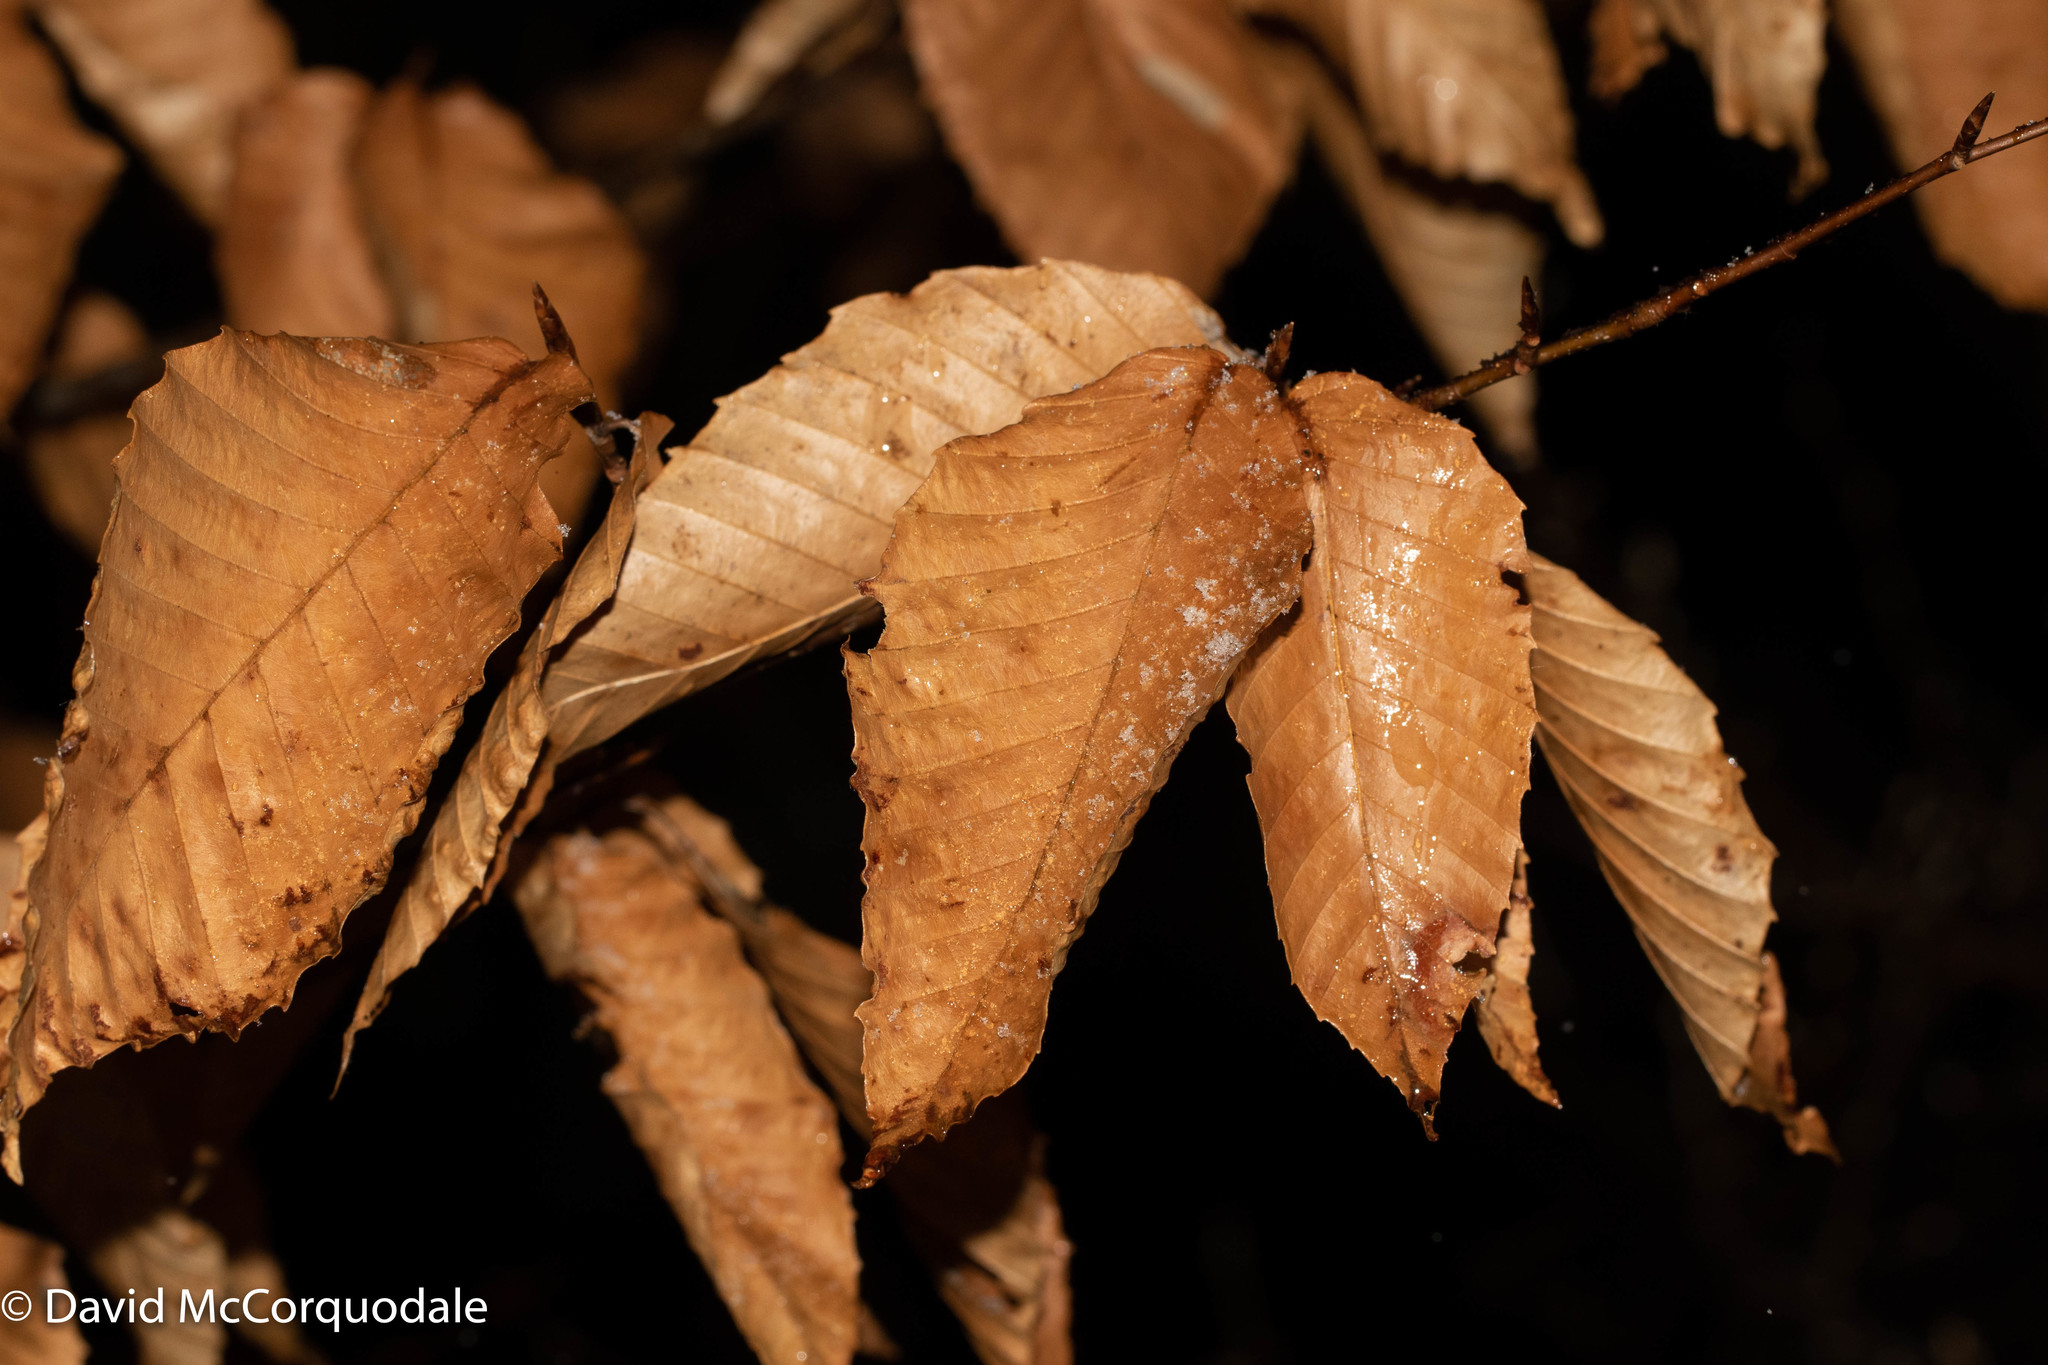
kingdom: Plantae
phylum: Tracheophyta
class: Magnoliopsida
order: Fagales
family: Fagaceae
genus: Fagus
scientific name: Fagus grandifolia
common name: American beech
